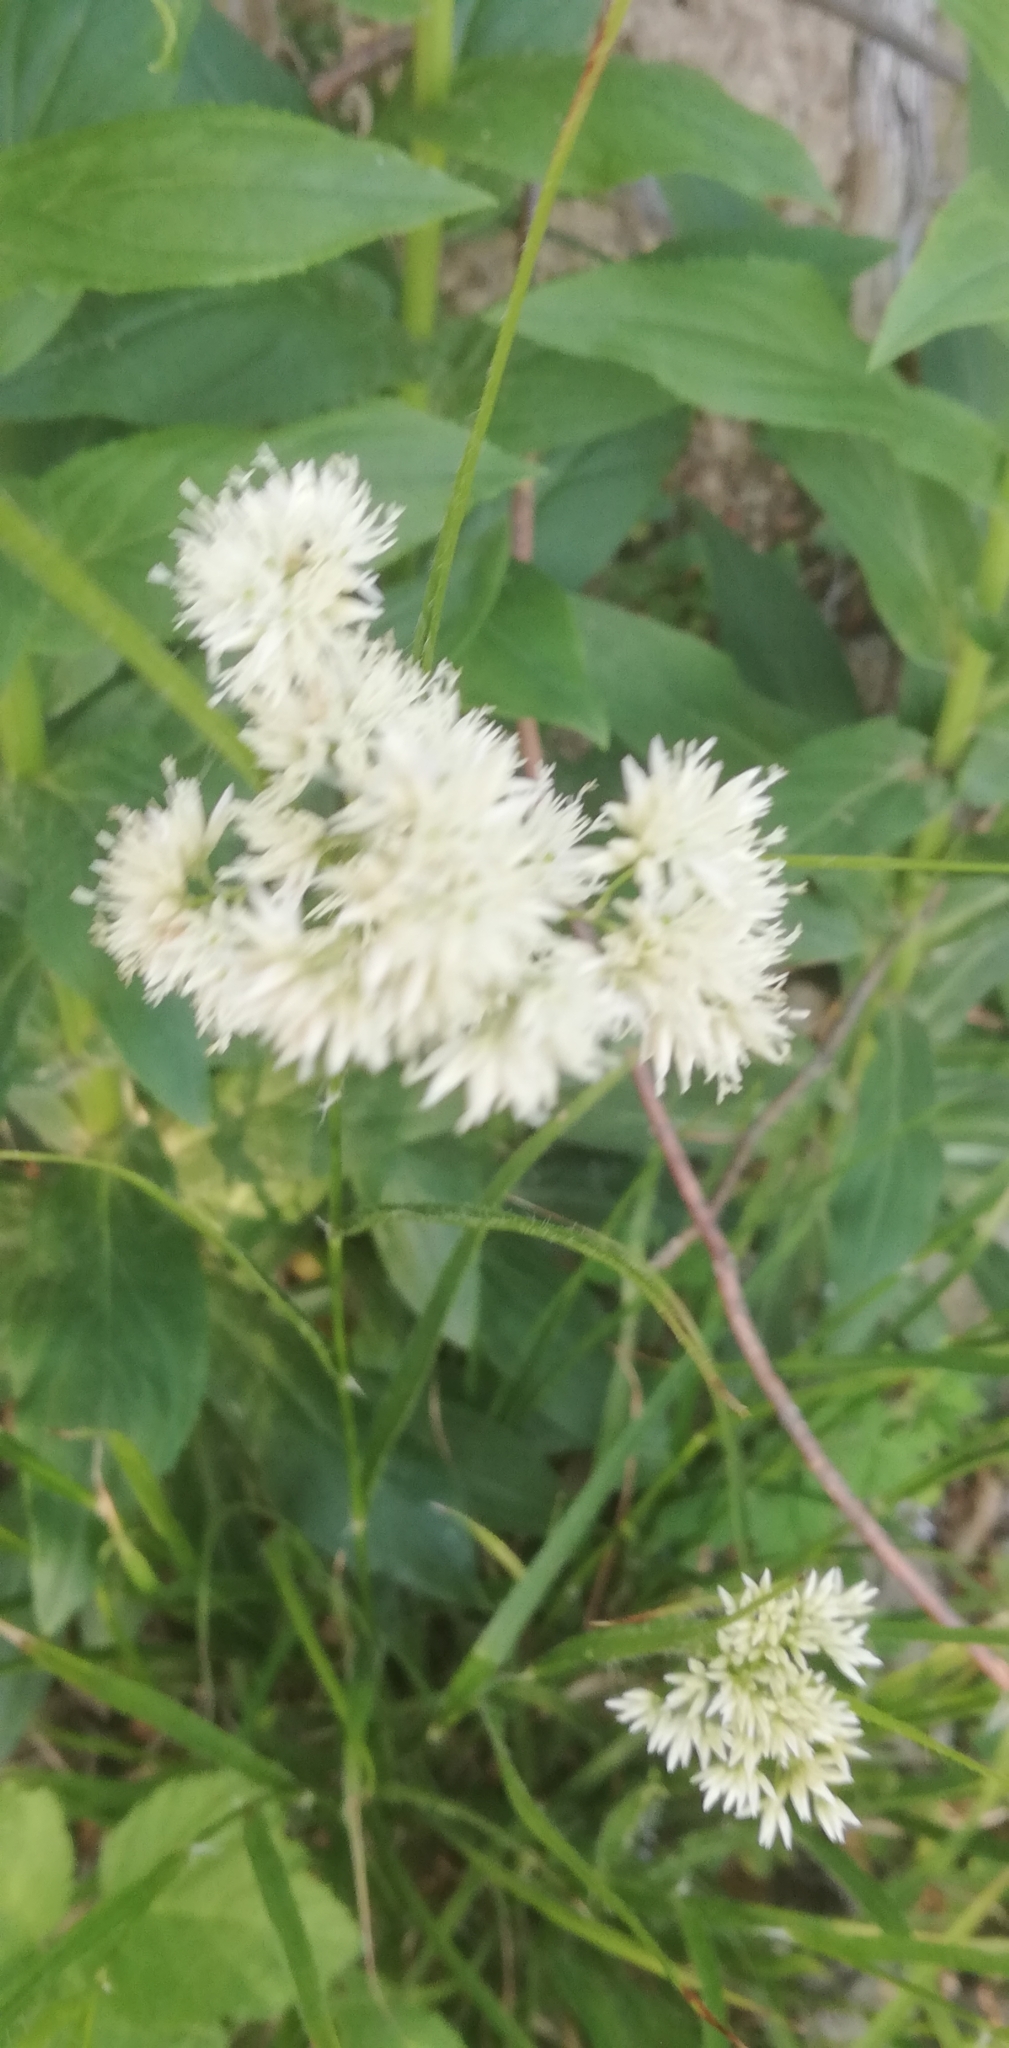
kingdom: Plantae
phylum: Tracheophyta
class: Liliopsida
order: Poales
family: Juncaceae
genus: Luzula
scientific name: Luzula nivea
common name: Snow-white wood-rush
